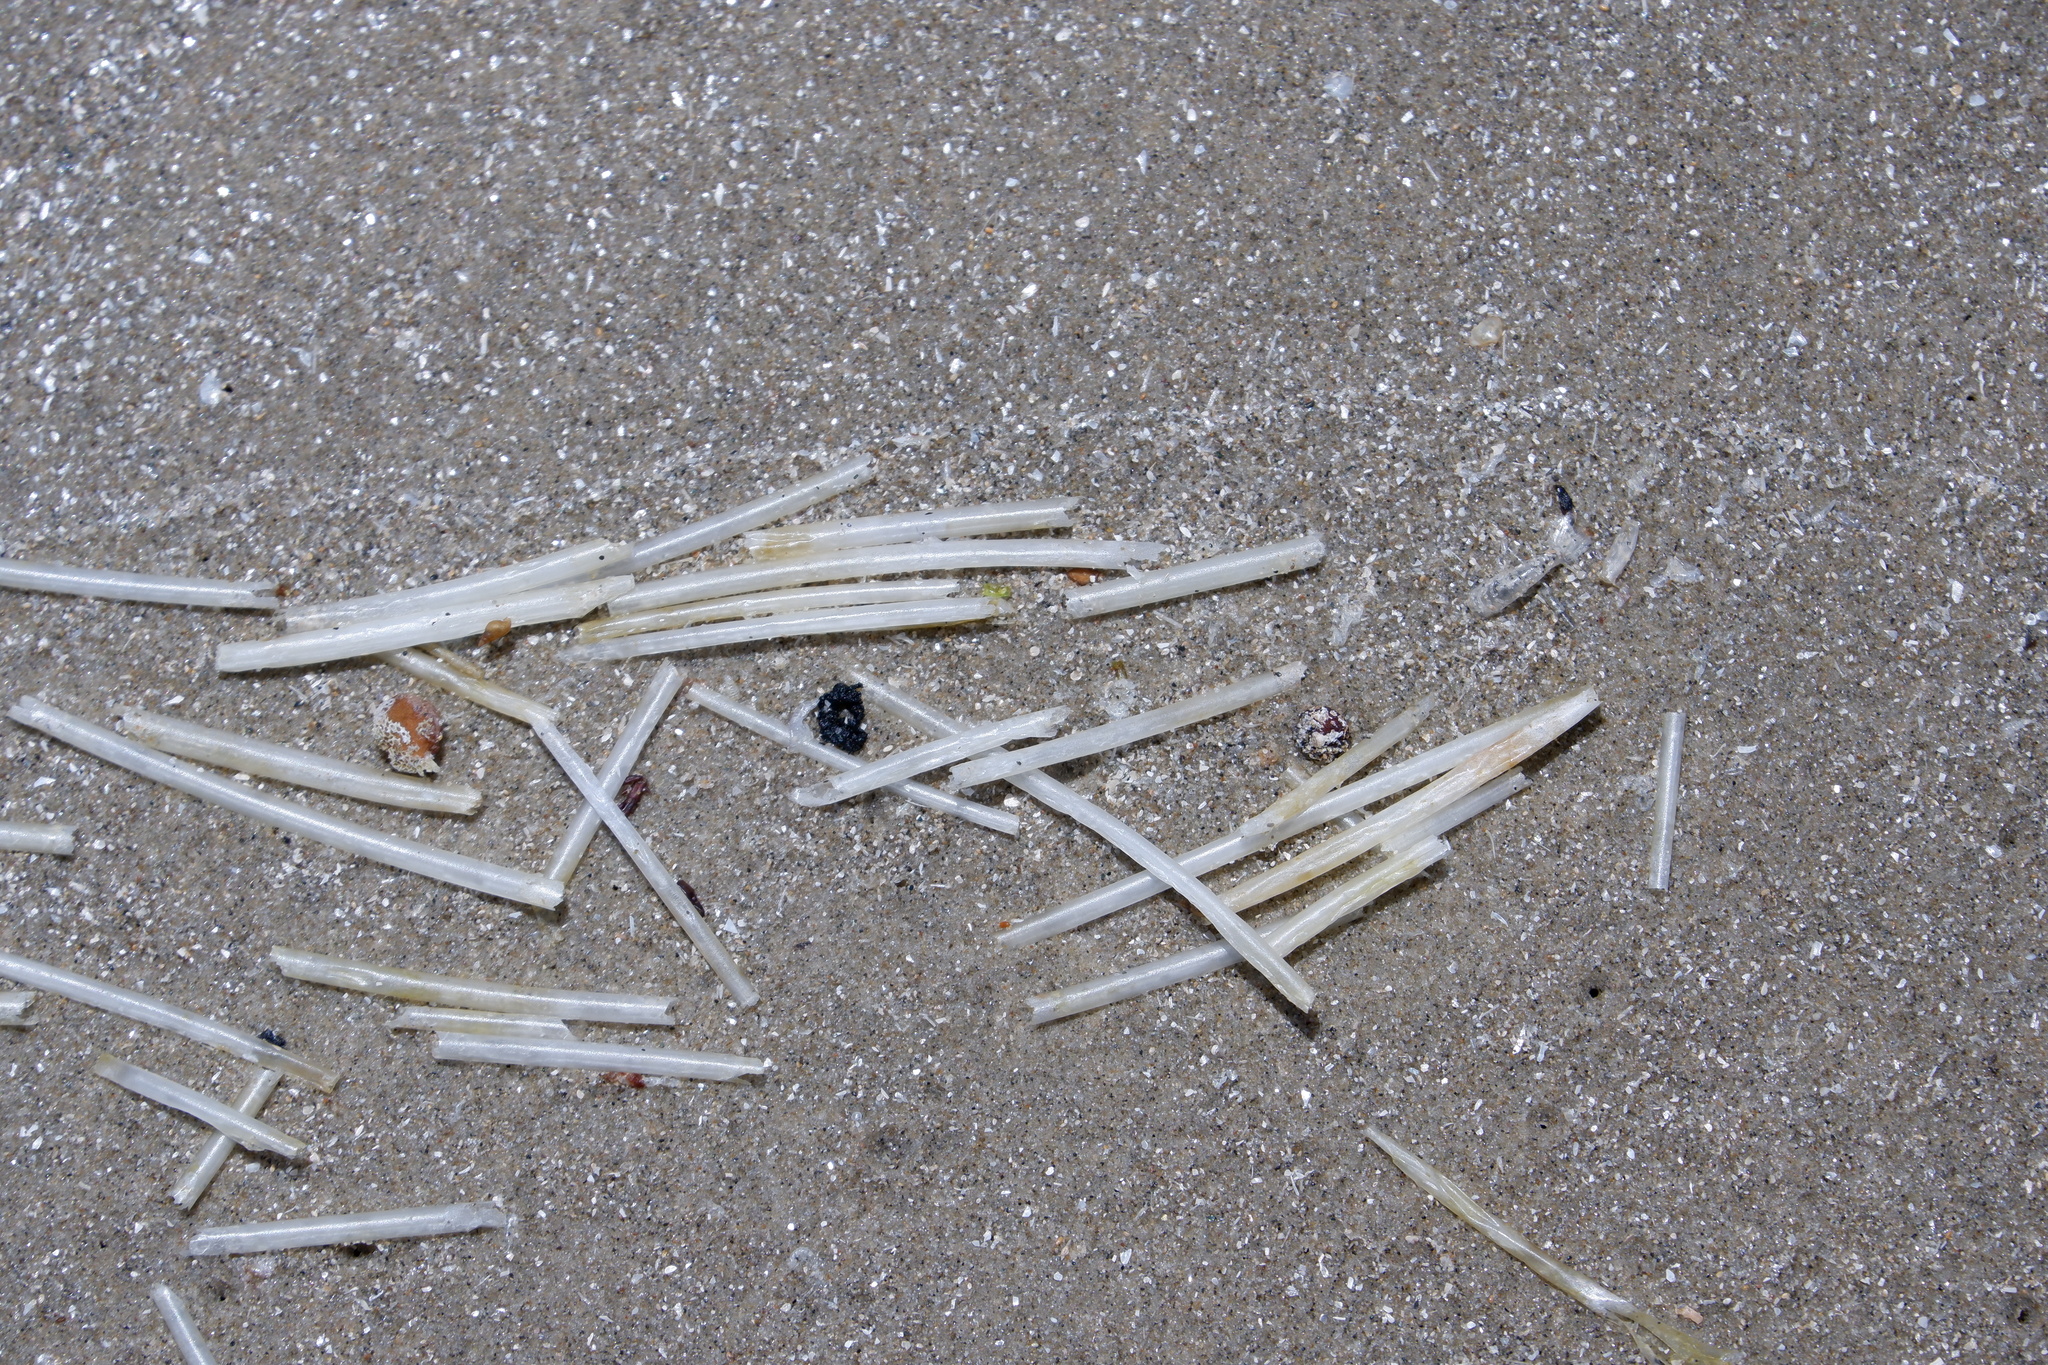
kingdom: Plantae
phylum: Tracheophyta
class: Liliopsida
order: Alismatales
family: Cymodoceaceae
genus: Syringodium
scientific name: Syringodium filiforme
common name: Manatee grass
